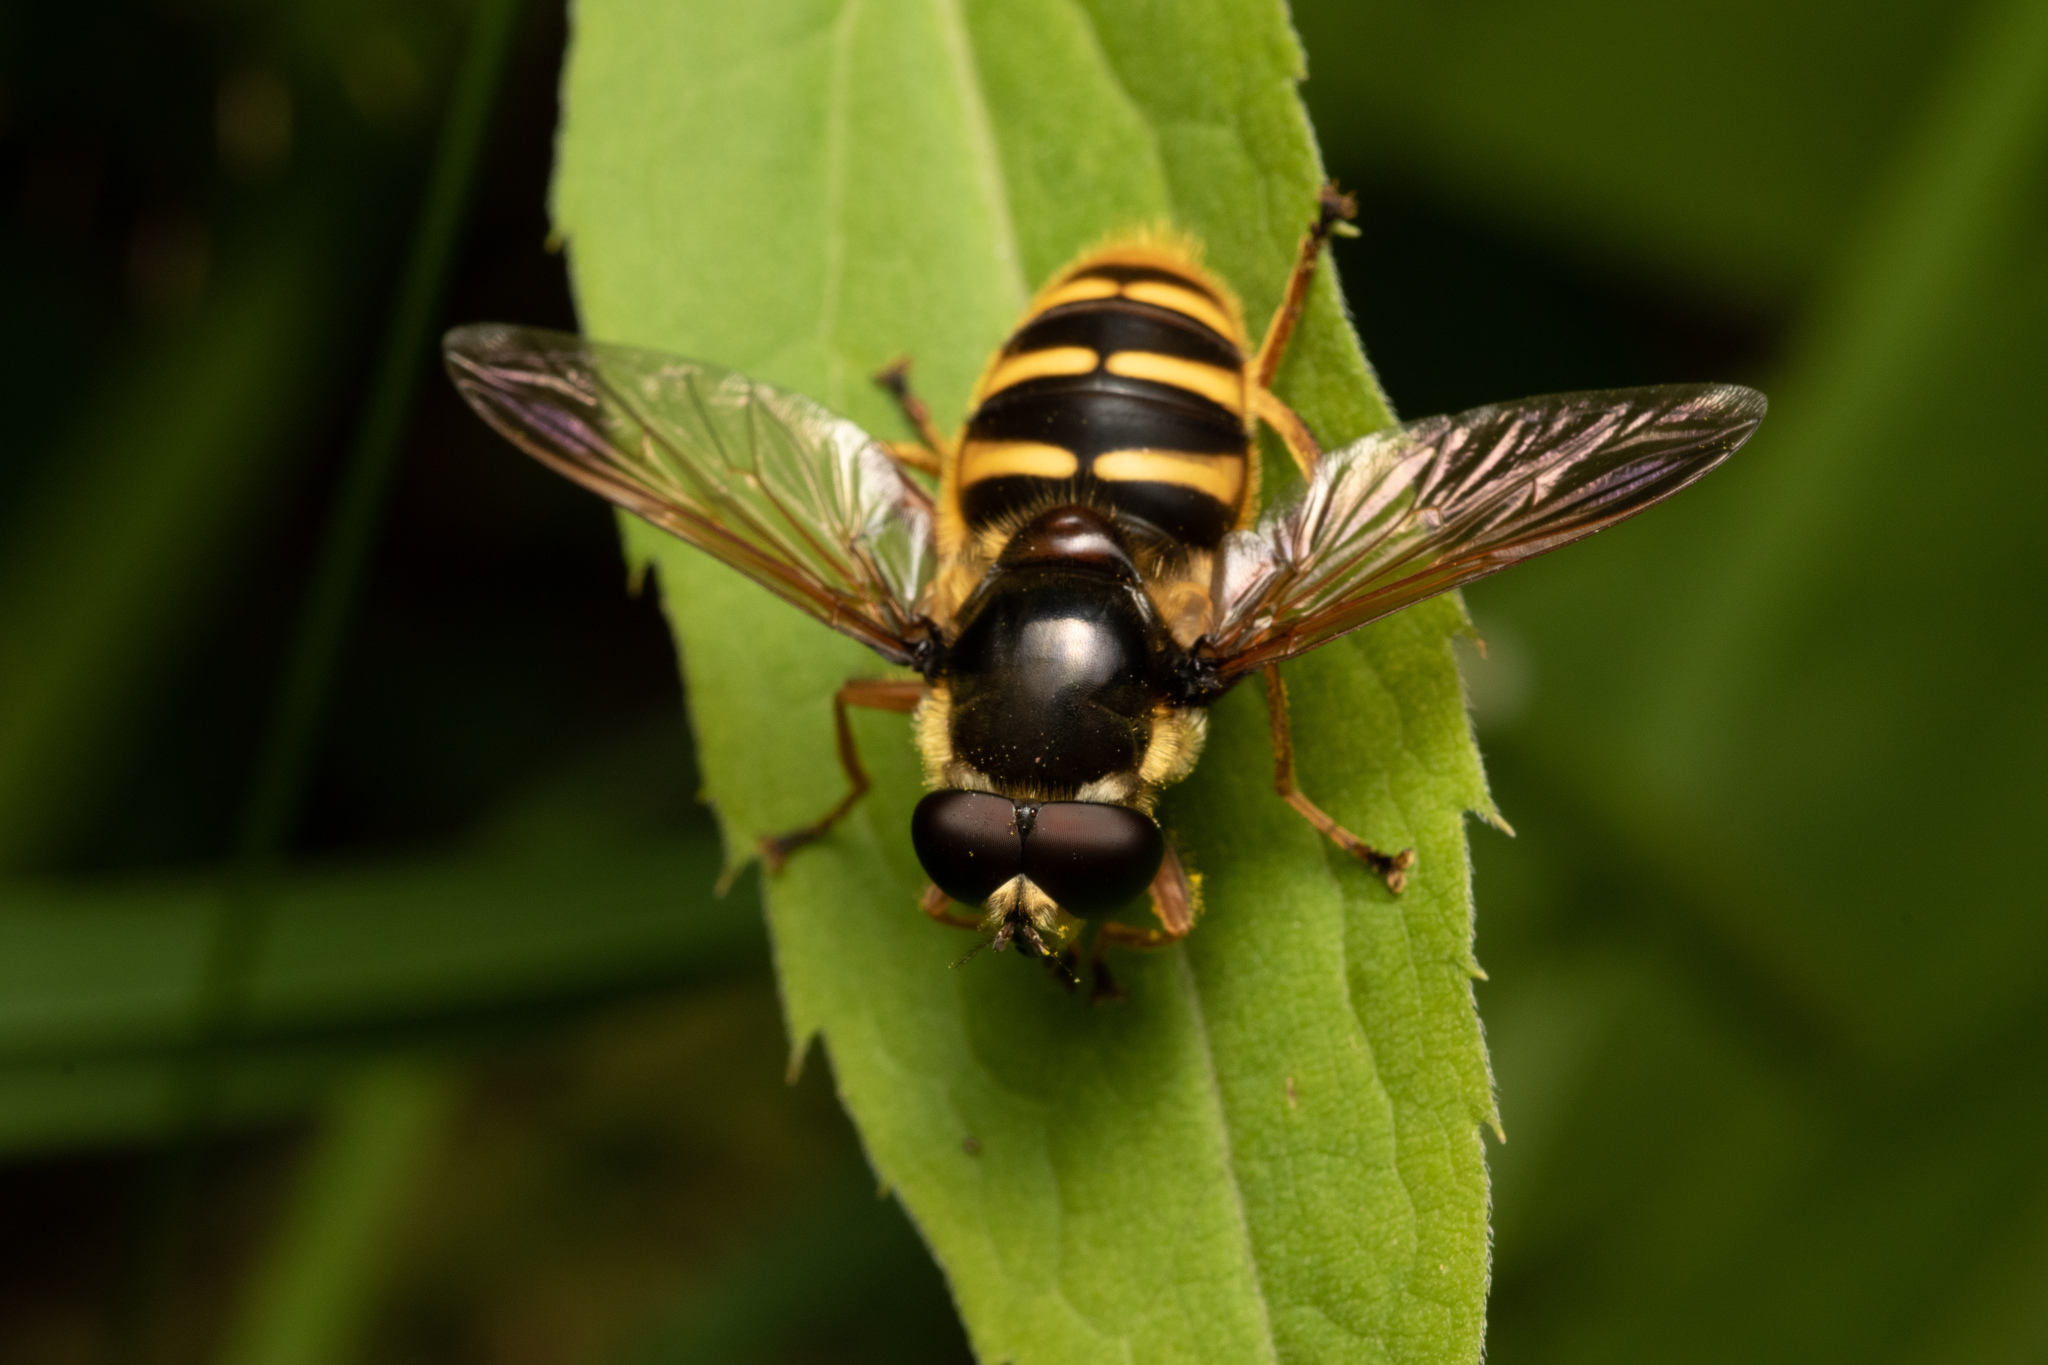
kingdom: Animalia
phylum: Arthropoda
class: Insecta
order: Diptera
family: Syrphidae
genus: Sericomyia
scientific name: Sericomyia silentis
